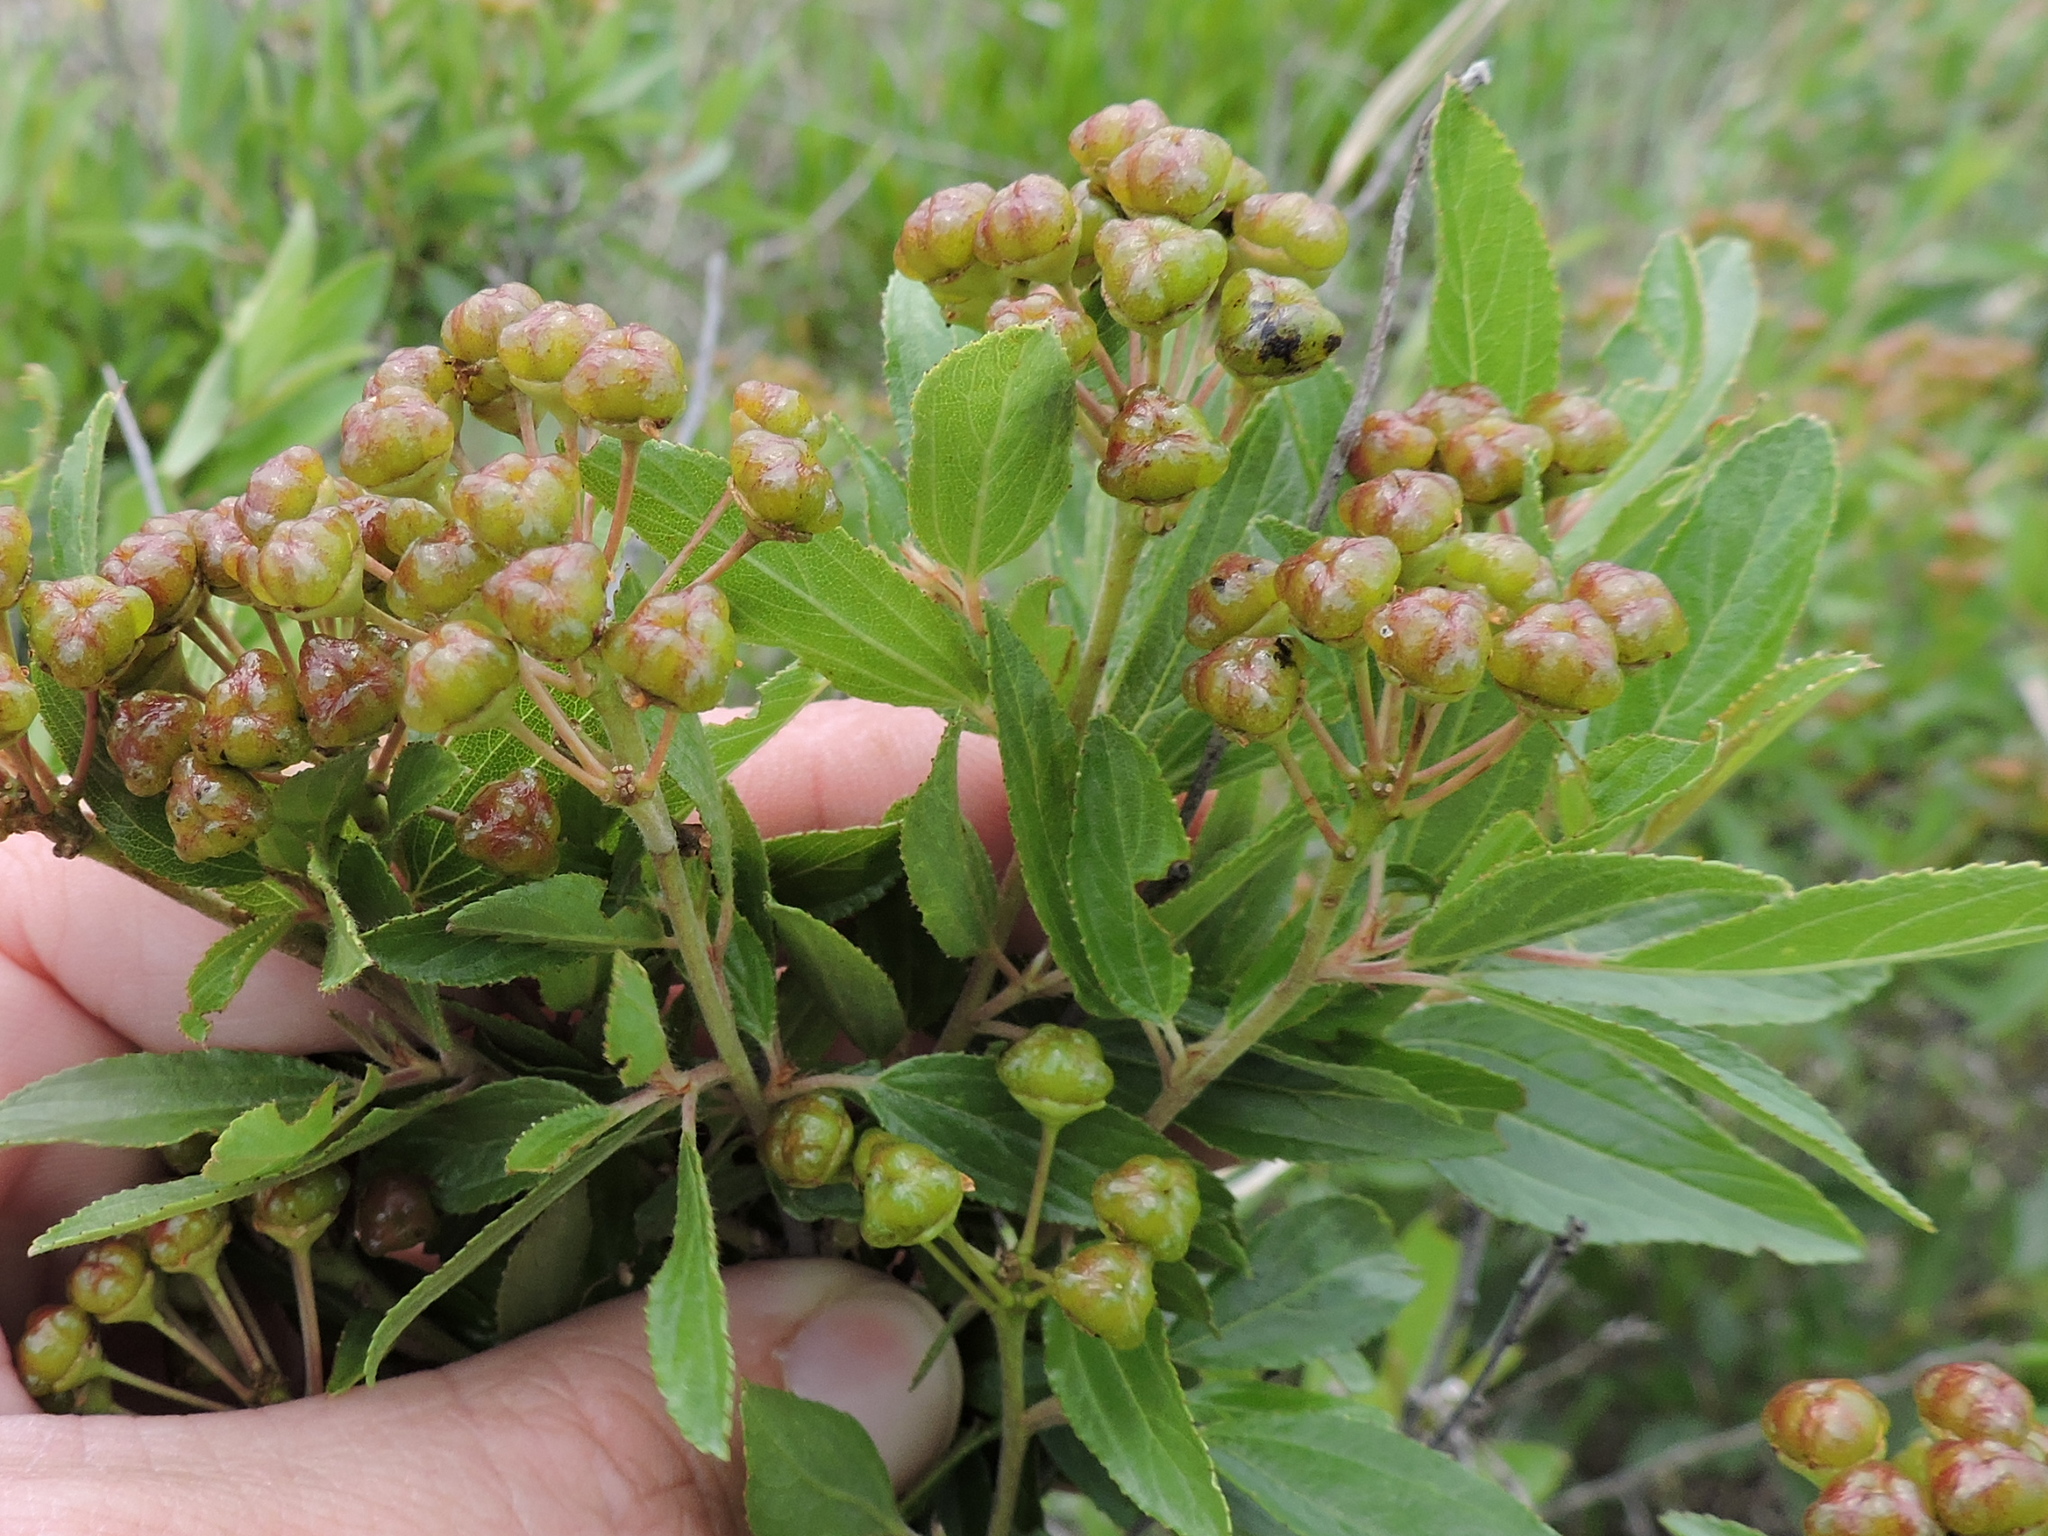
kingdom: Plantae
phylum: Tracheophyta
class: Magnoliopsida
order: Rosales
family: Rhamnaceae
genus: Ceanothus
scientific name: Ceanothus herbaceus
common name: Inland ceanothus
